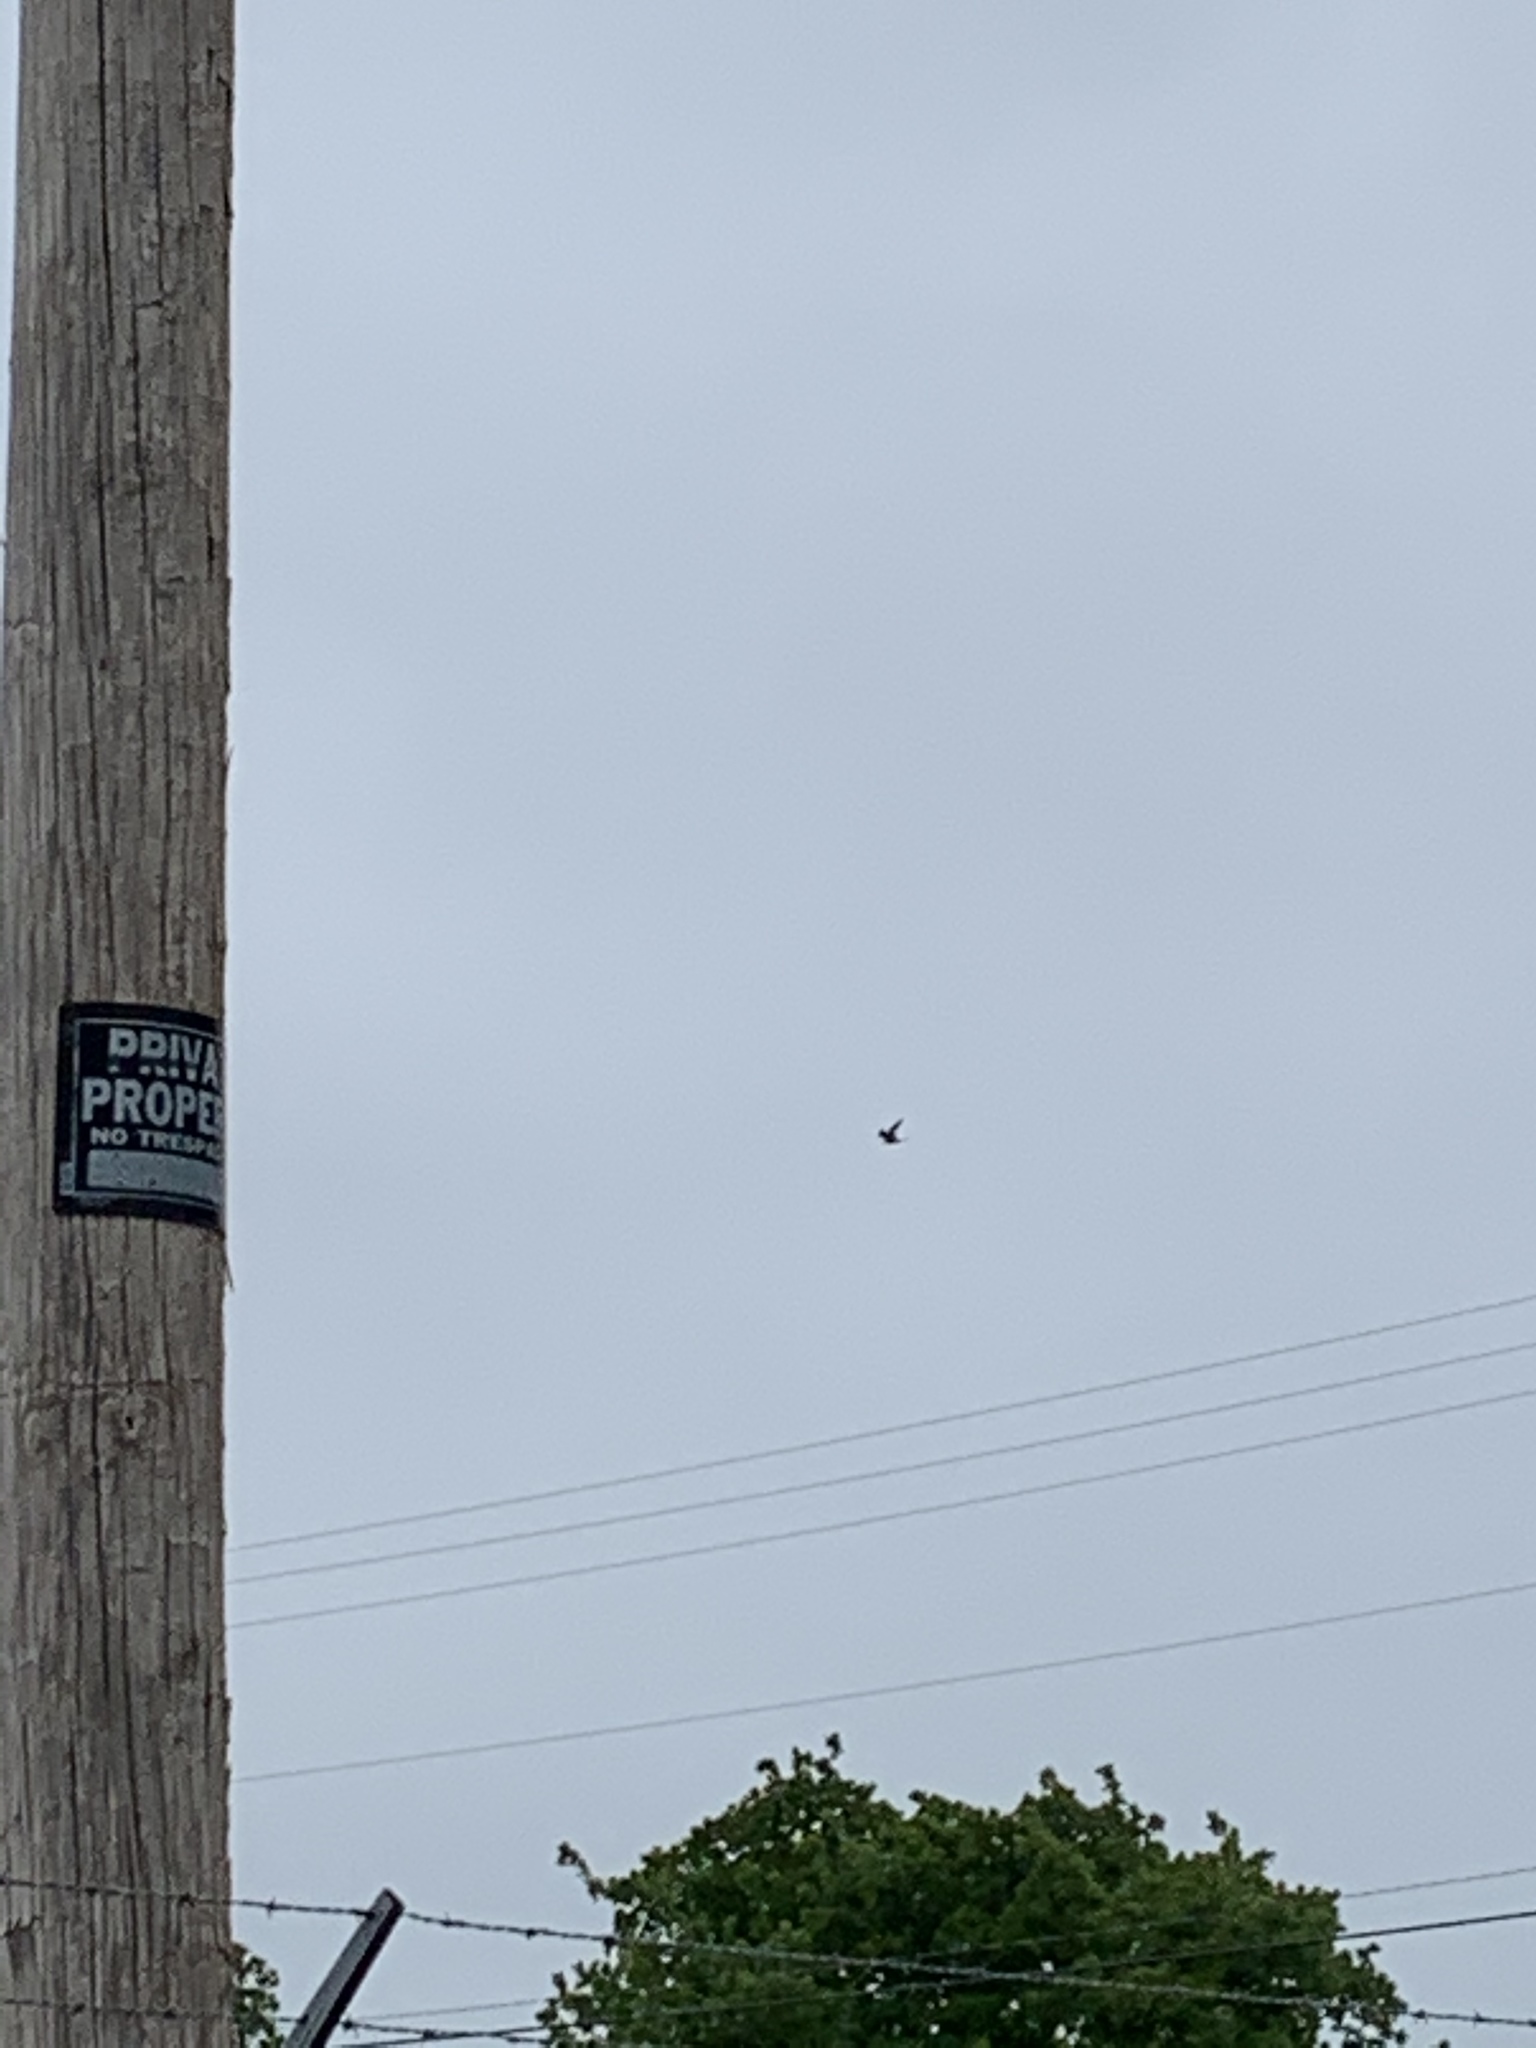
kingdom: Animalia
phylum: Chordata
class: Aves
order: Accipitriformes
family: Accipitridae
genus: Ictinia
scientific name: Ictinia mississippiensis
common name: Mississippi kite
